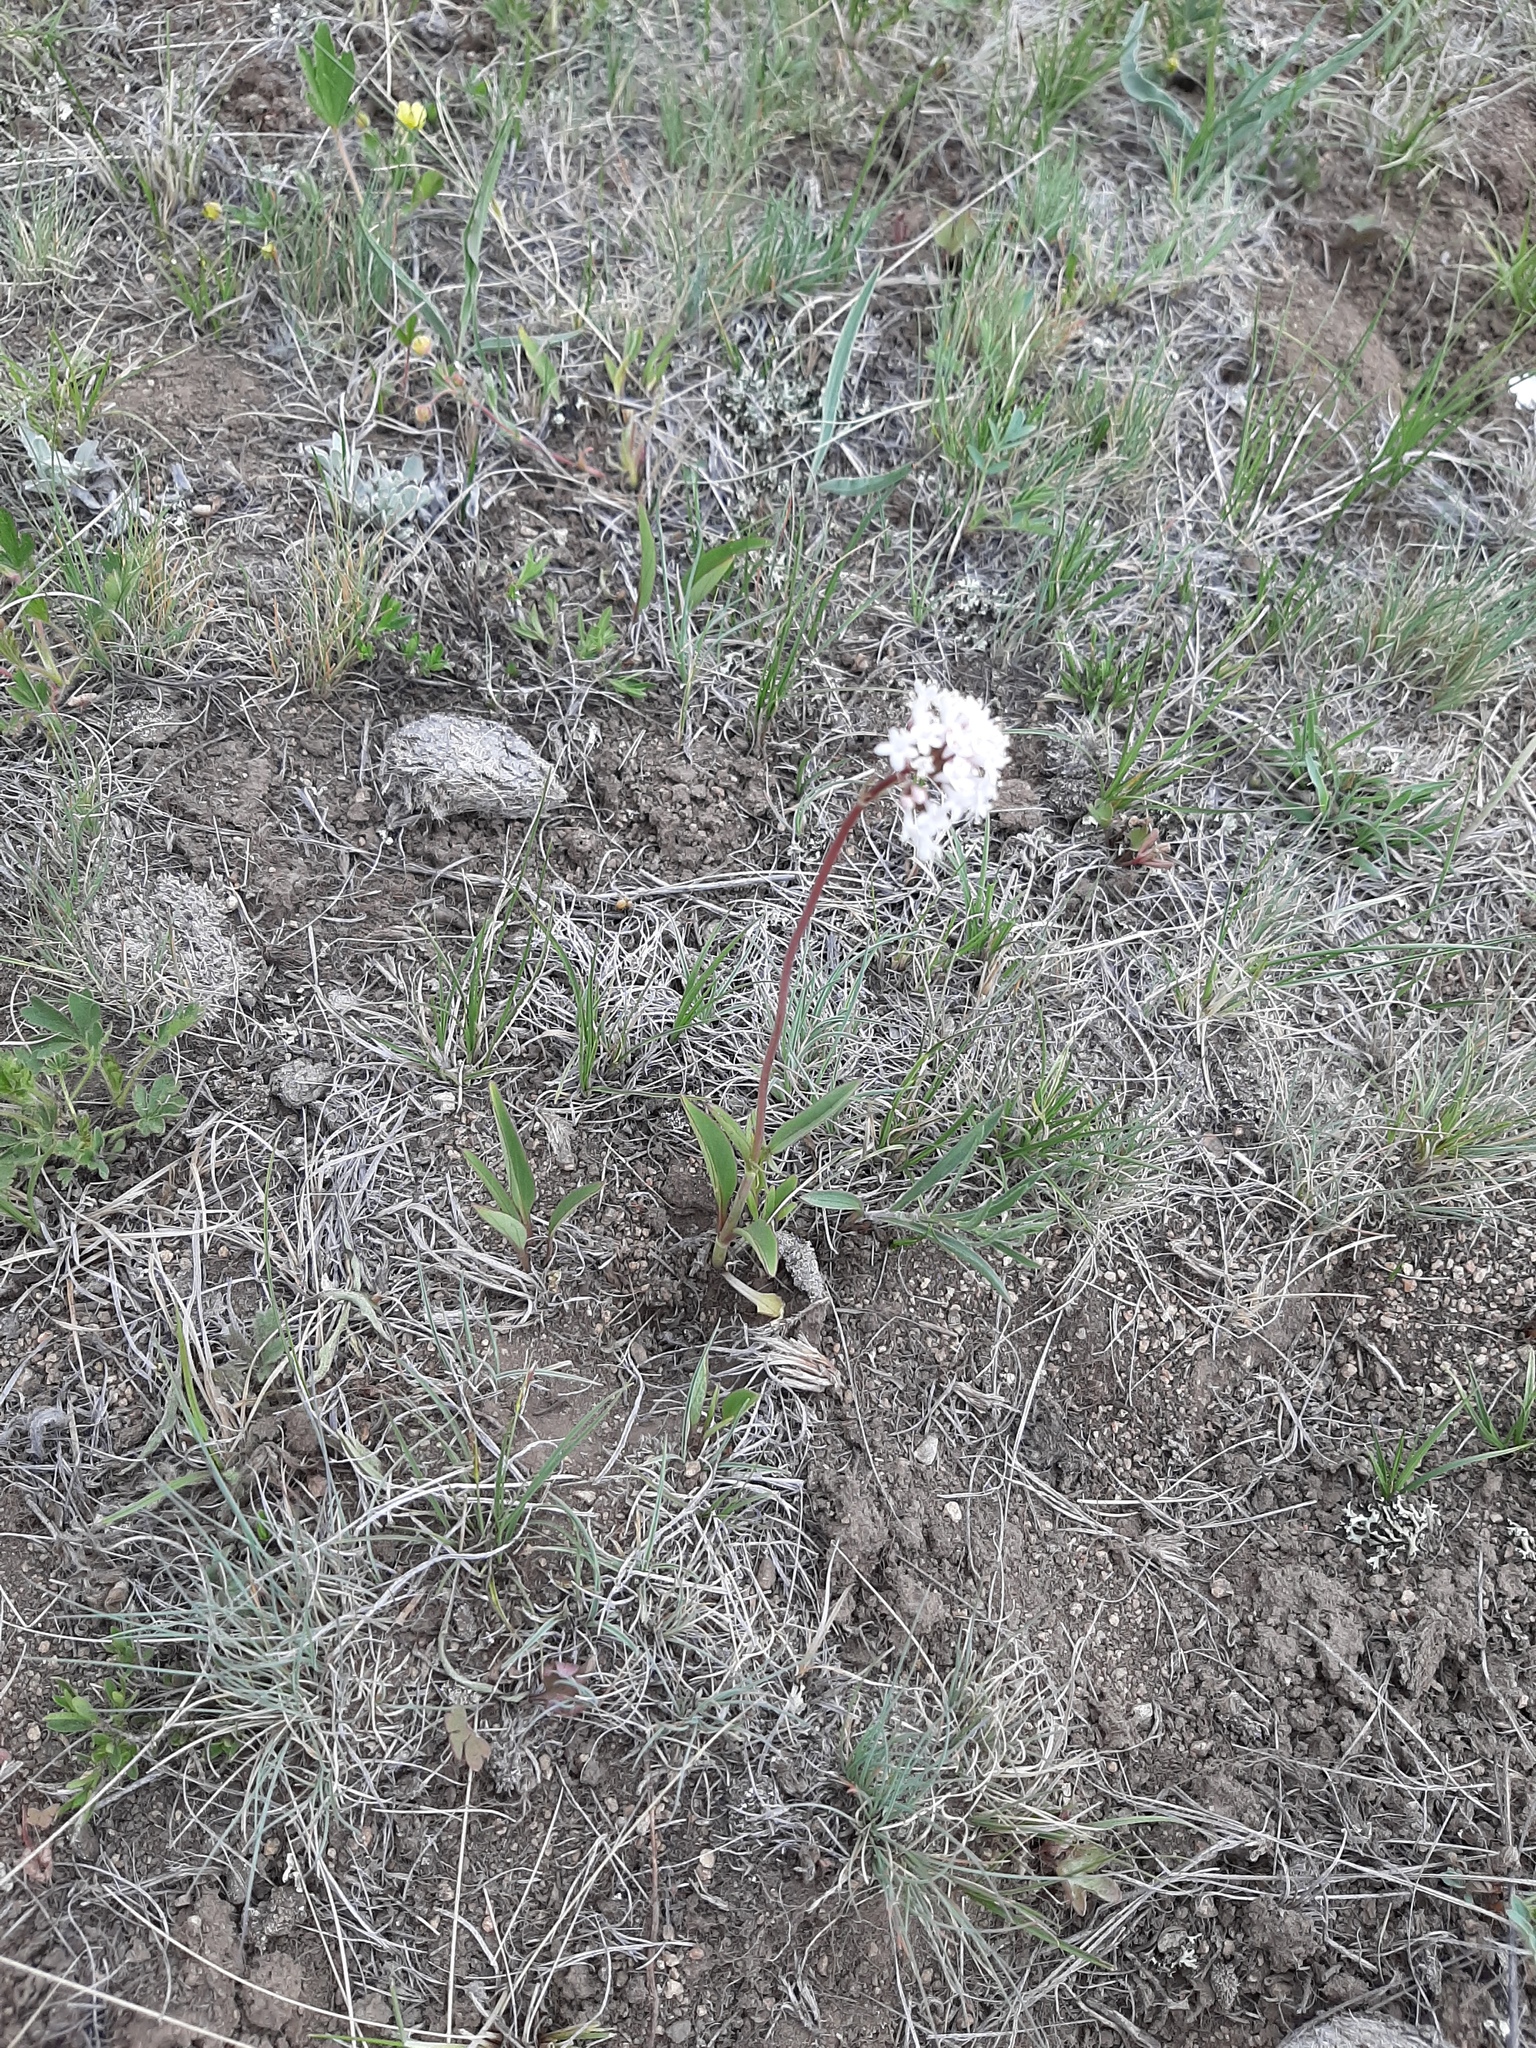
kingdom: Plantae
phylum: Tracheophyta
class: Magnoliopsida
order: Dipsacales
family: Caprifoliaceae
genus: Valeriana
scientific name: Valeriana tuberosa
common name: Tuberous valerian
